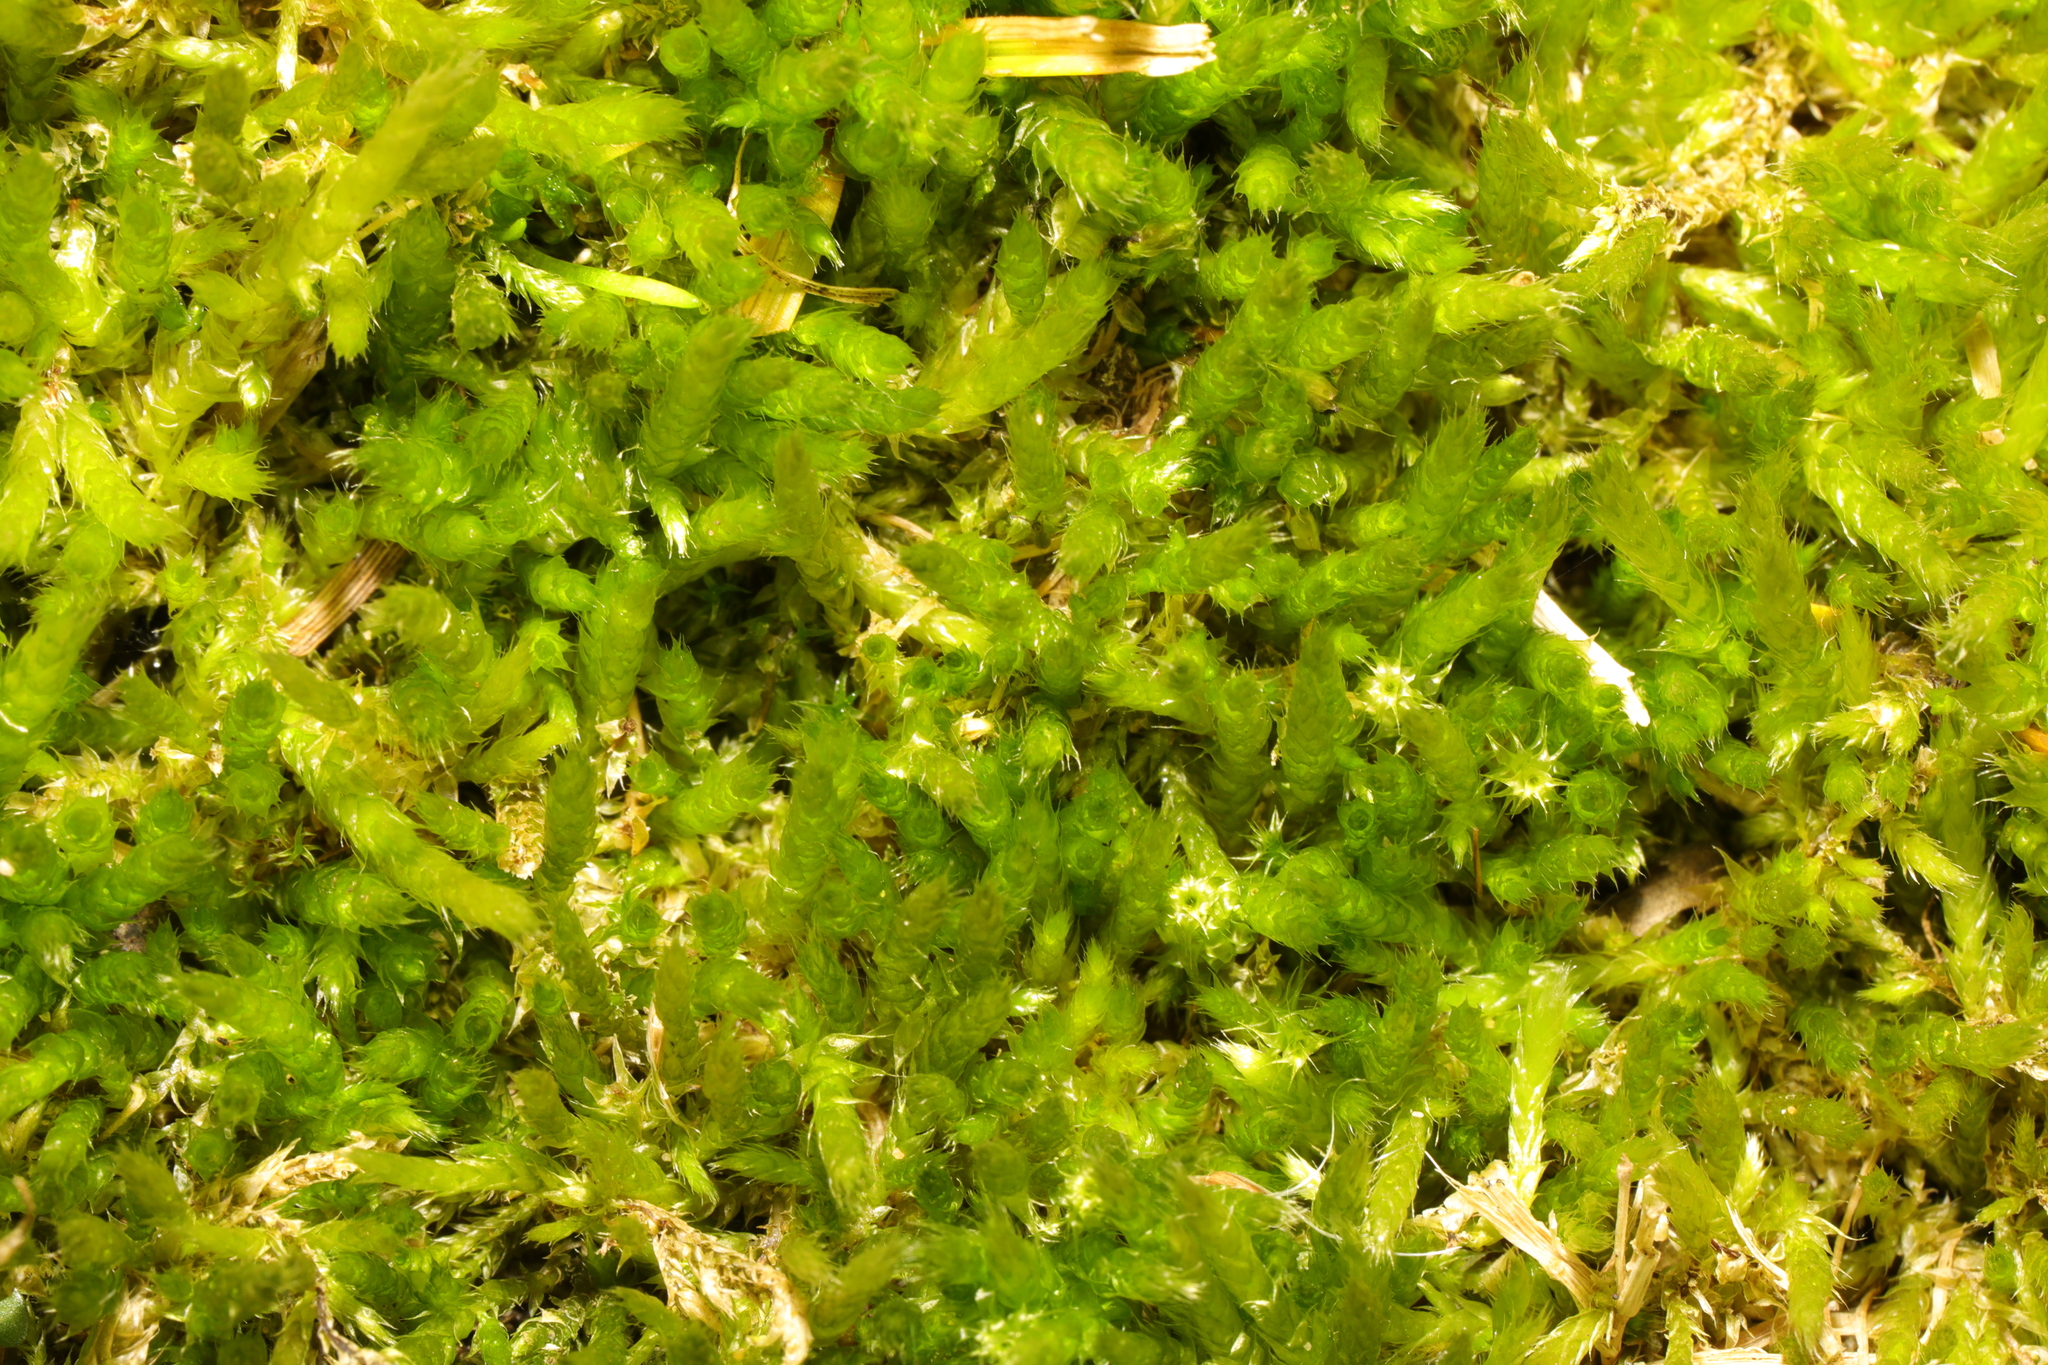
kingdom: Plantae
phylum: Bryophyta
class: Bryopsida
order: Hypnales
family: Brachytheciaceae
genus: Brachythecium
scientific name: Brachythecium albicans
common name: Whitish ragged moss
